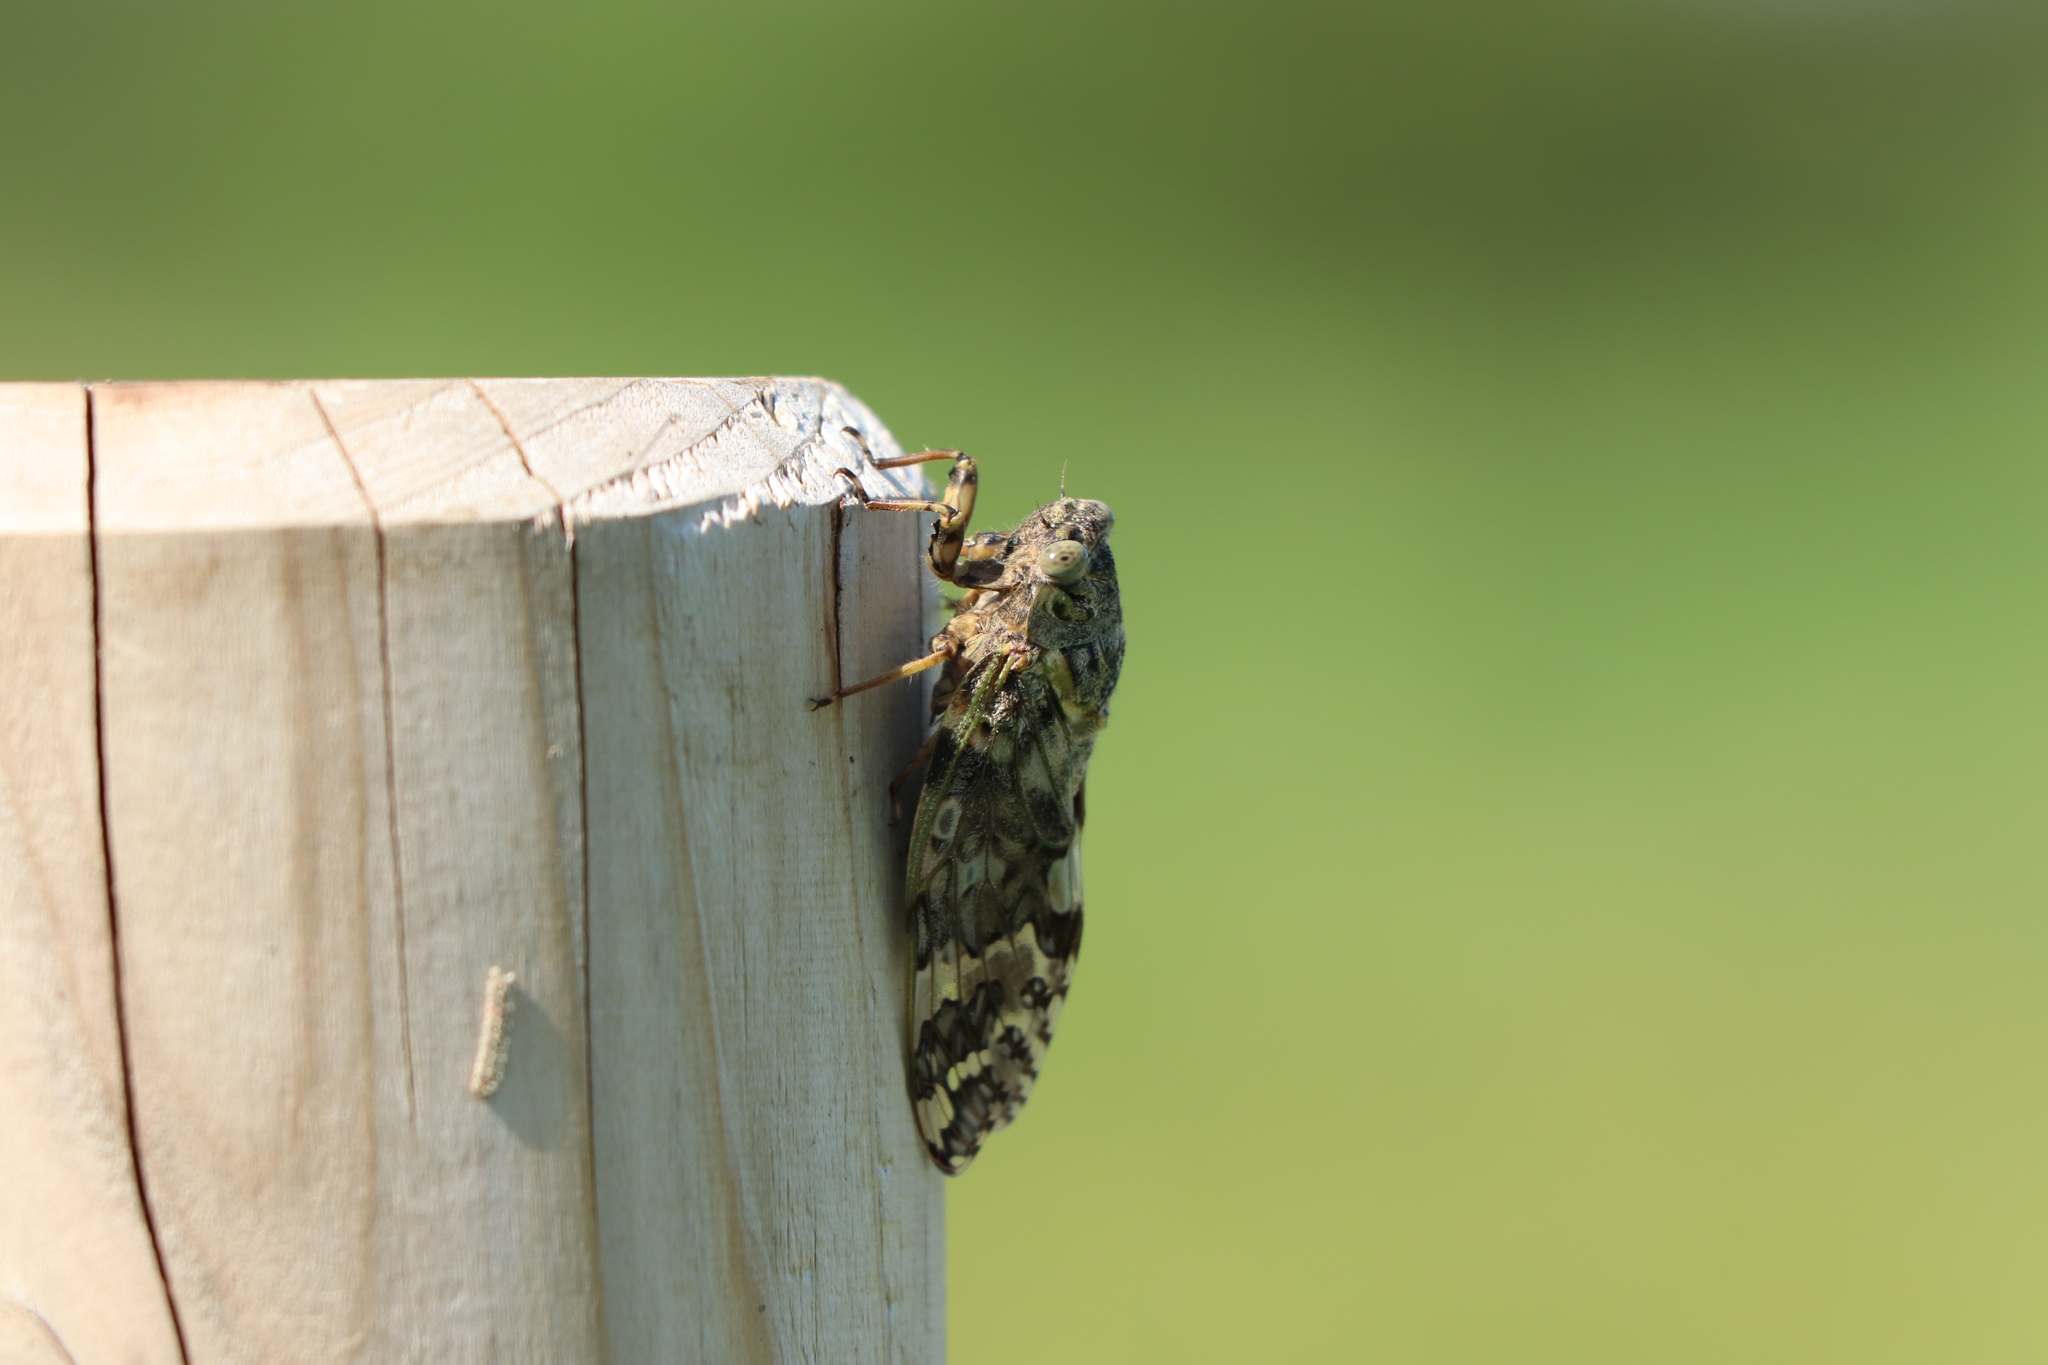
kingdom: Animalia
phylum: Arthropoda
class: Insecta
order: Hemiptera
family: Cicadidae
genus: Platypleura
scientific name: Platypleura kaempferi
